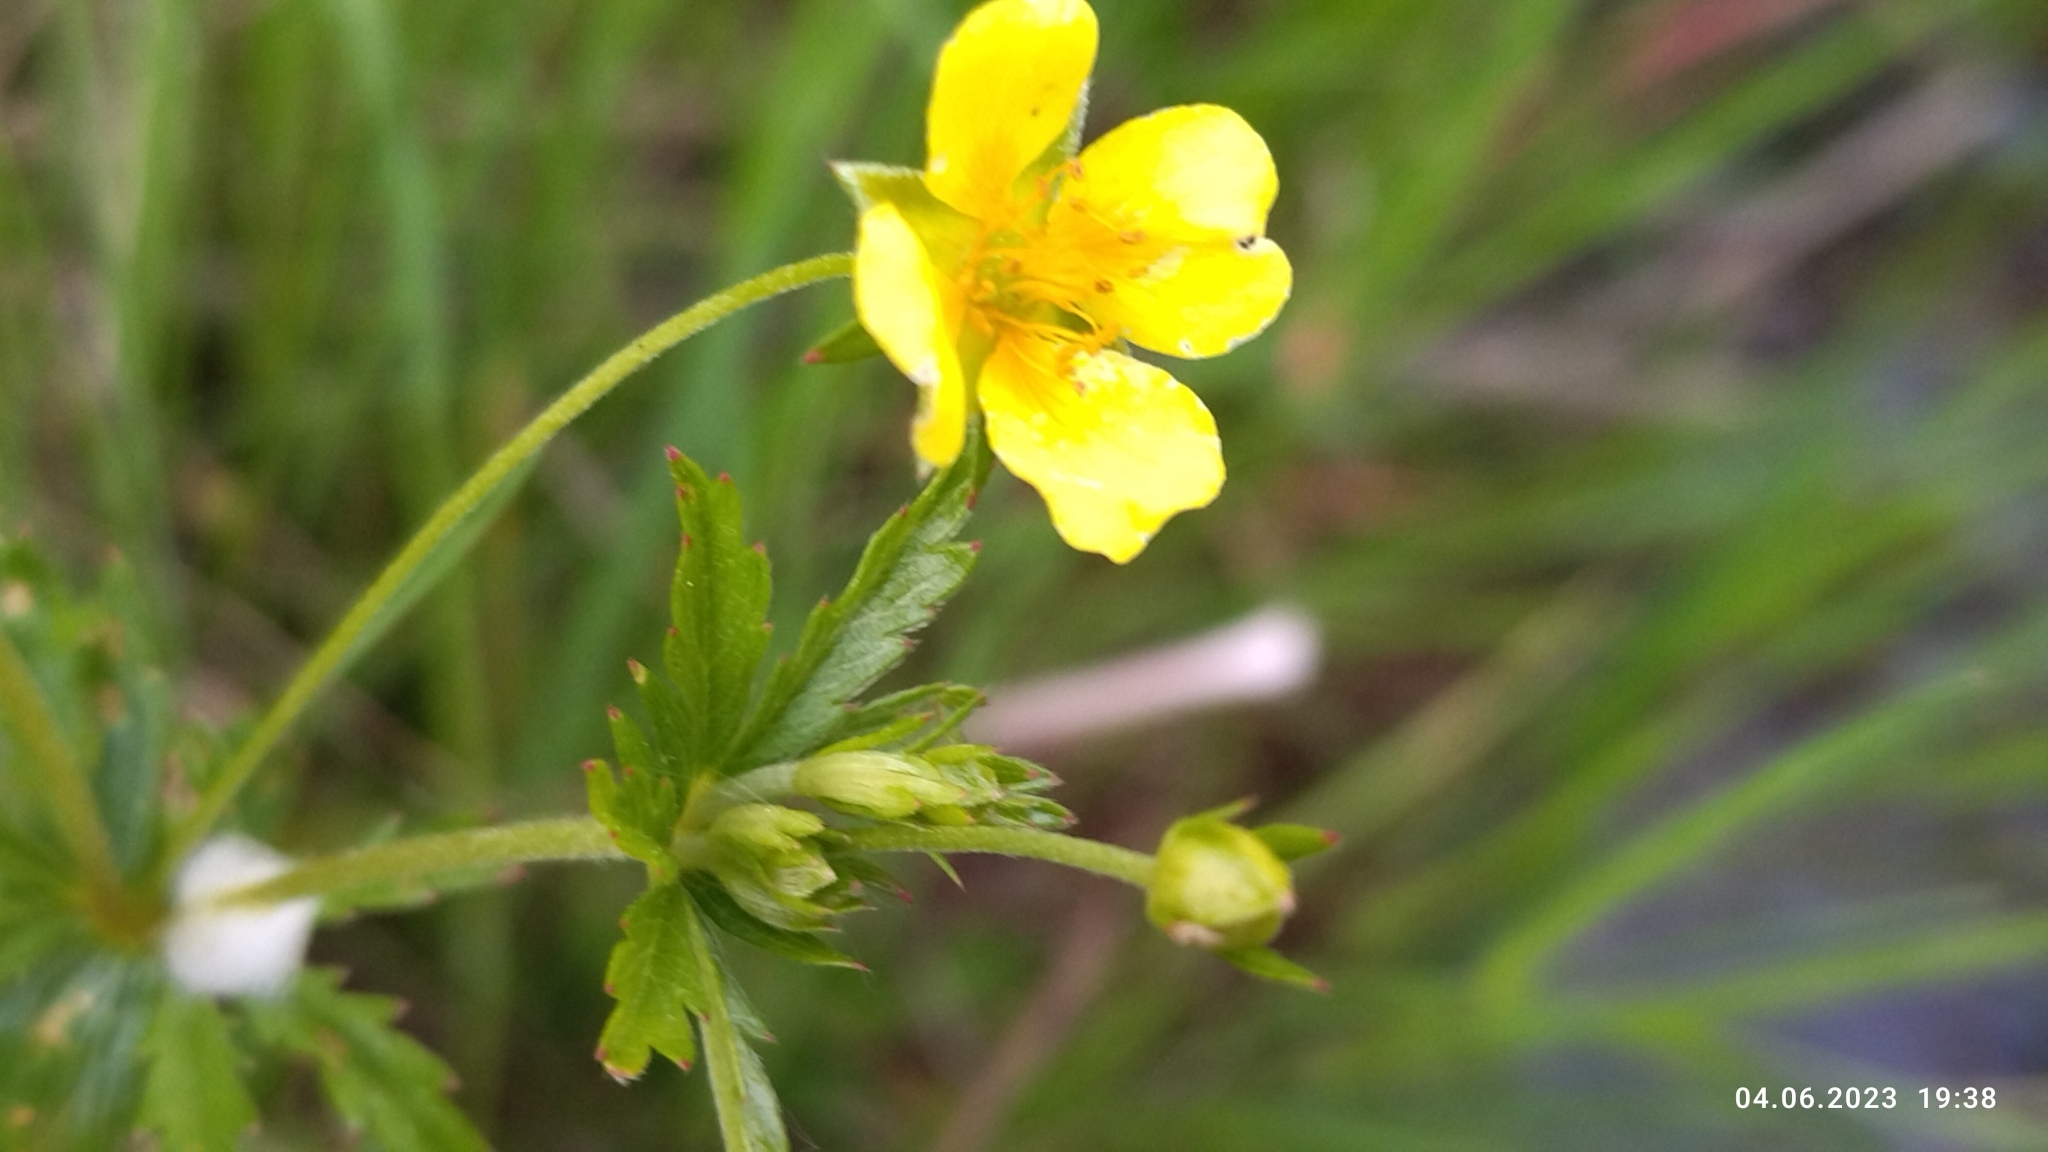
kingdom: Plantae
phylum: Tracheophyta
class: Magnoliopsida
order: Rosales
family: Rosaceae
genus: Potentilla
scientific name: Potentilla erecta
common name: Tormentil
